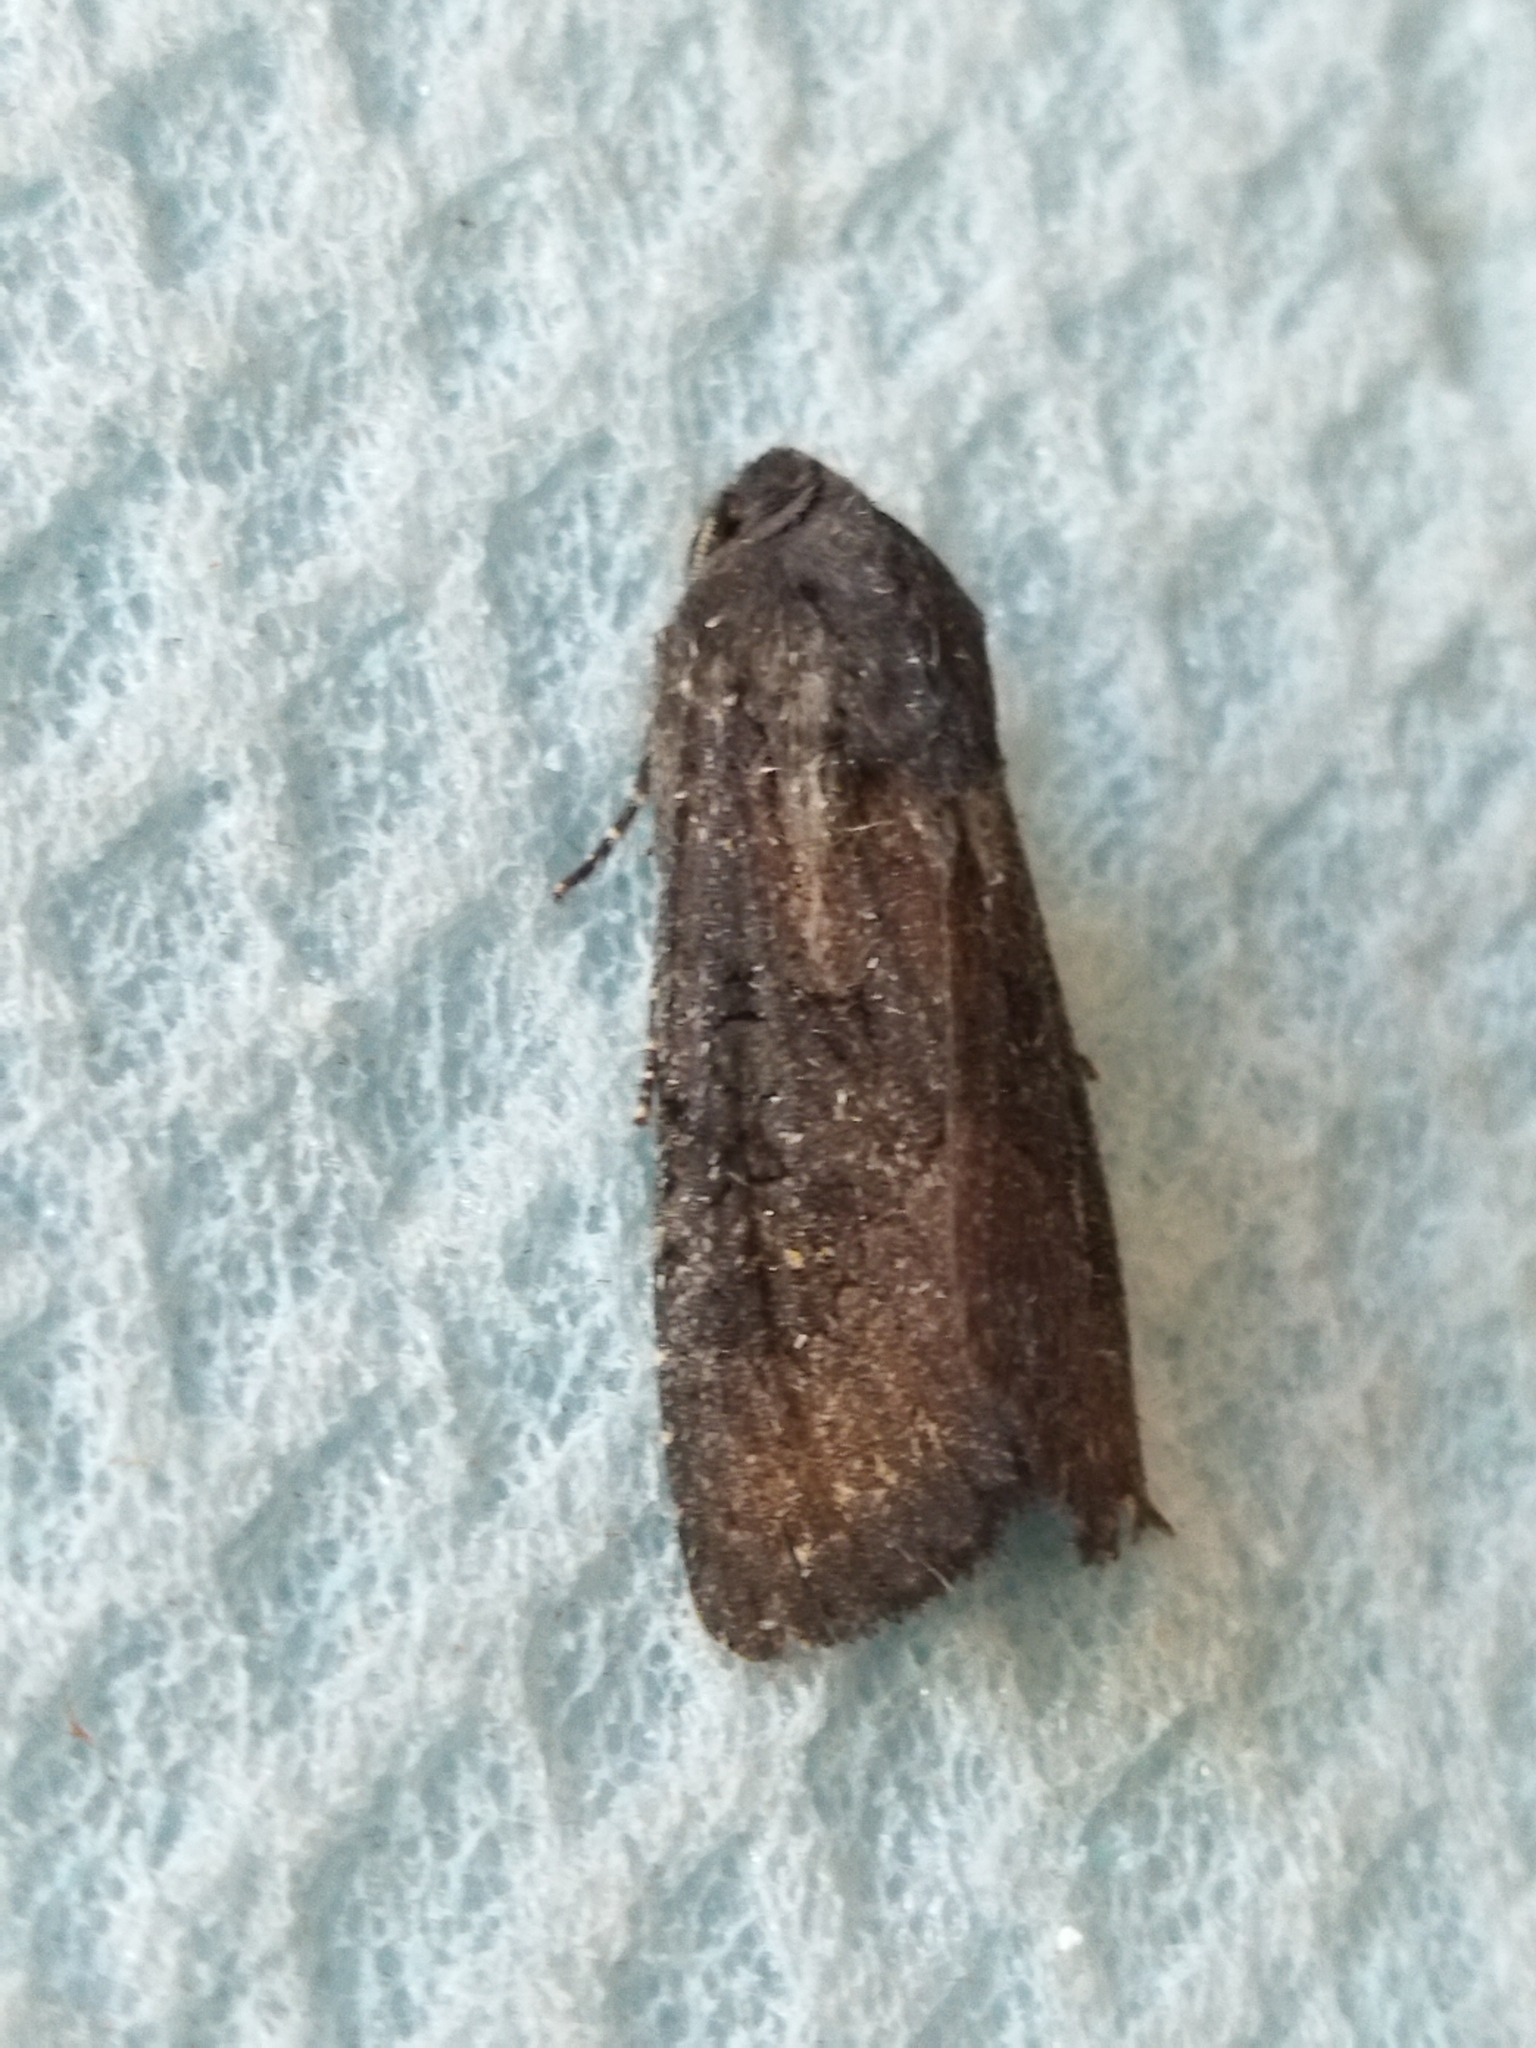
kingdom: Animalia
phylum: Arthropoda
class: Insecta
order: Lepidoptera
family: Noctuidae
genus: Aporophyla
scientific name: Aporophyla nigra
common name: Black rustic
